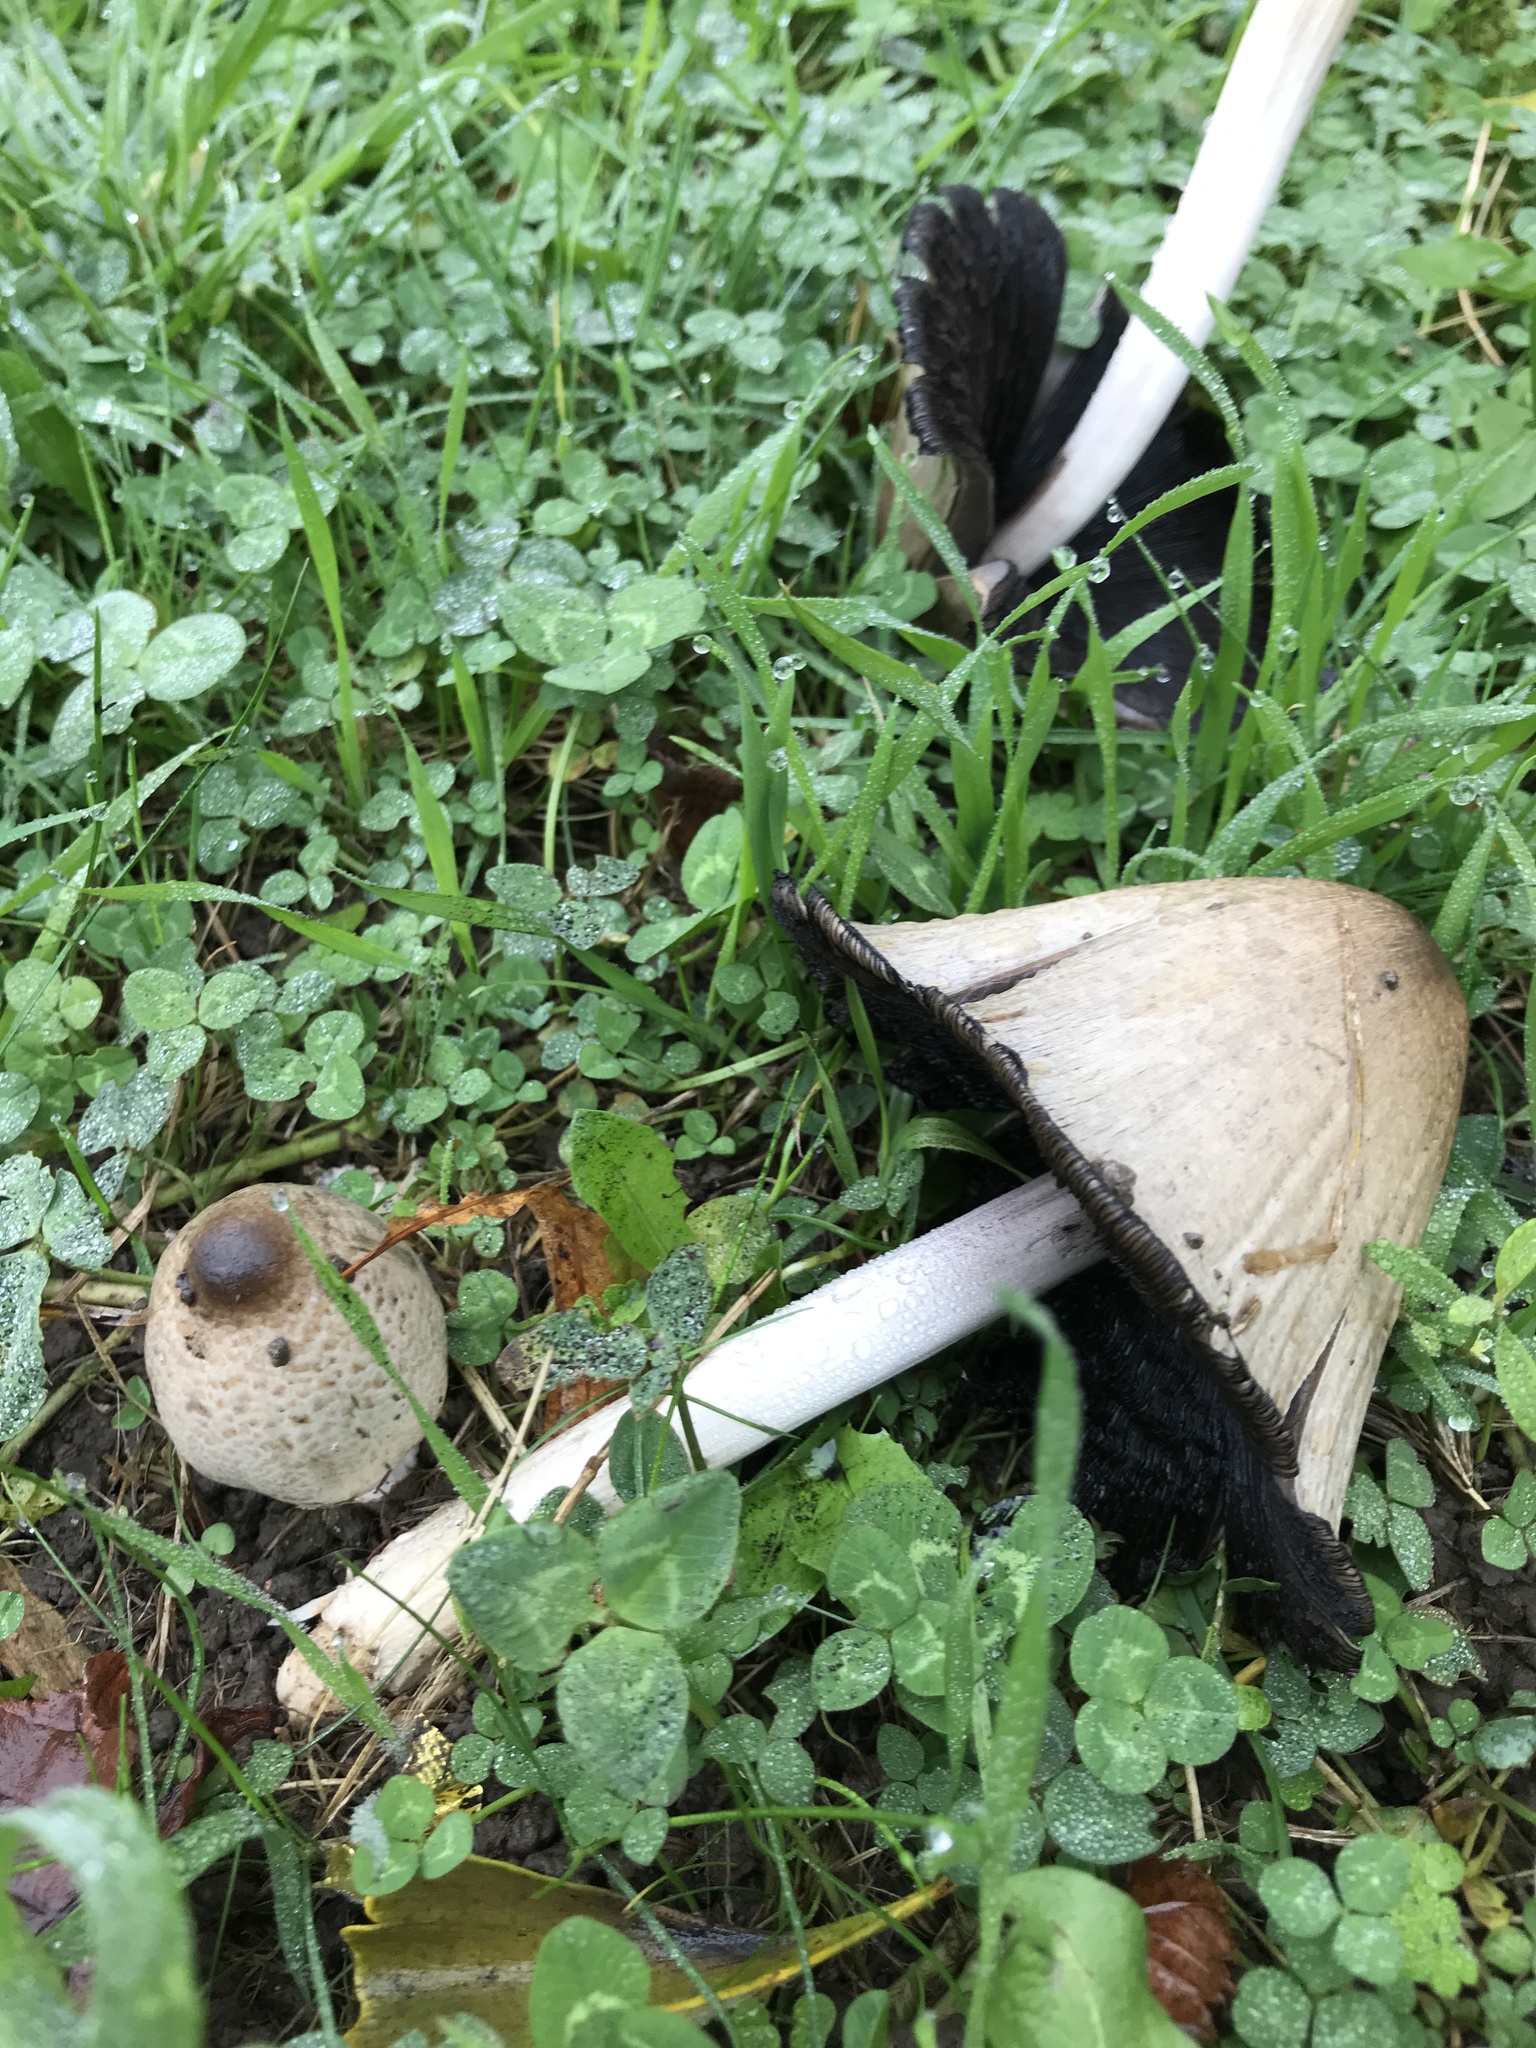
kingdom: Fungi
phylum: Basidiomycota
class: Agaricomycetes
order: Agaricales
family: Psathyrellaceae
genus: Coprinopsis
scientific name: Coprinopsis atramentaria
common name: Common ink-cap
